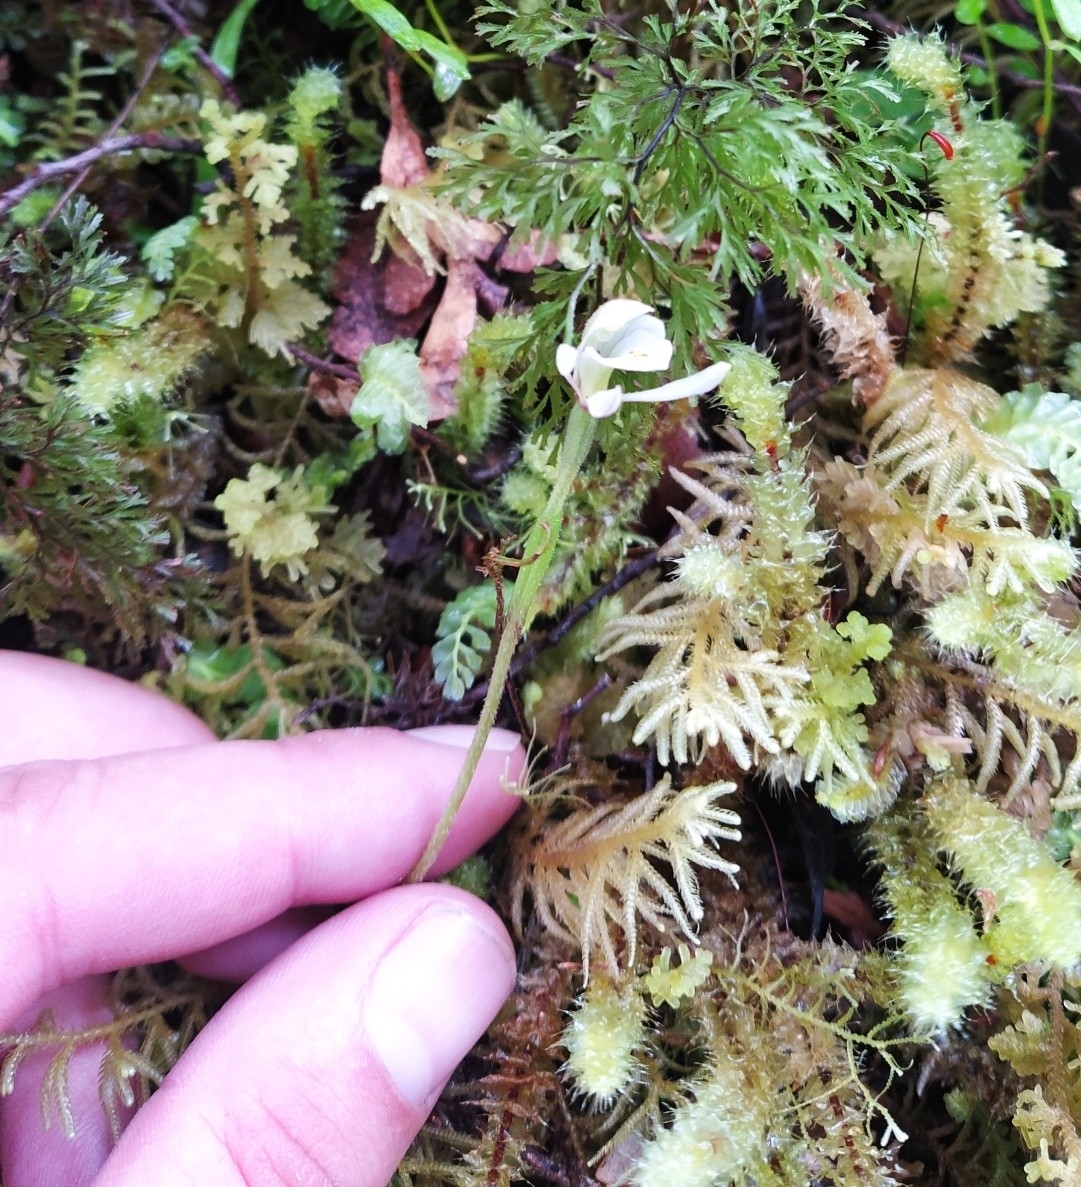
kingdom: Plantae
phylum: Tracheophyta
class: Liliopsida
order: Asparagales
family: Orchidaceae
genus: Aporostylis
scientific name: Aporostylis bifolia
